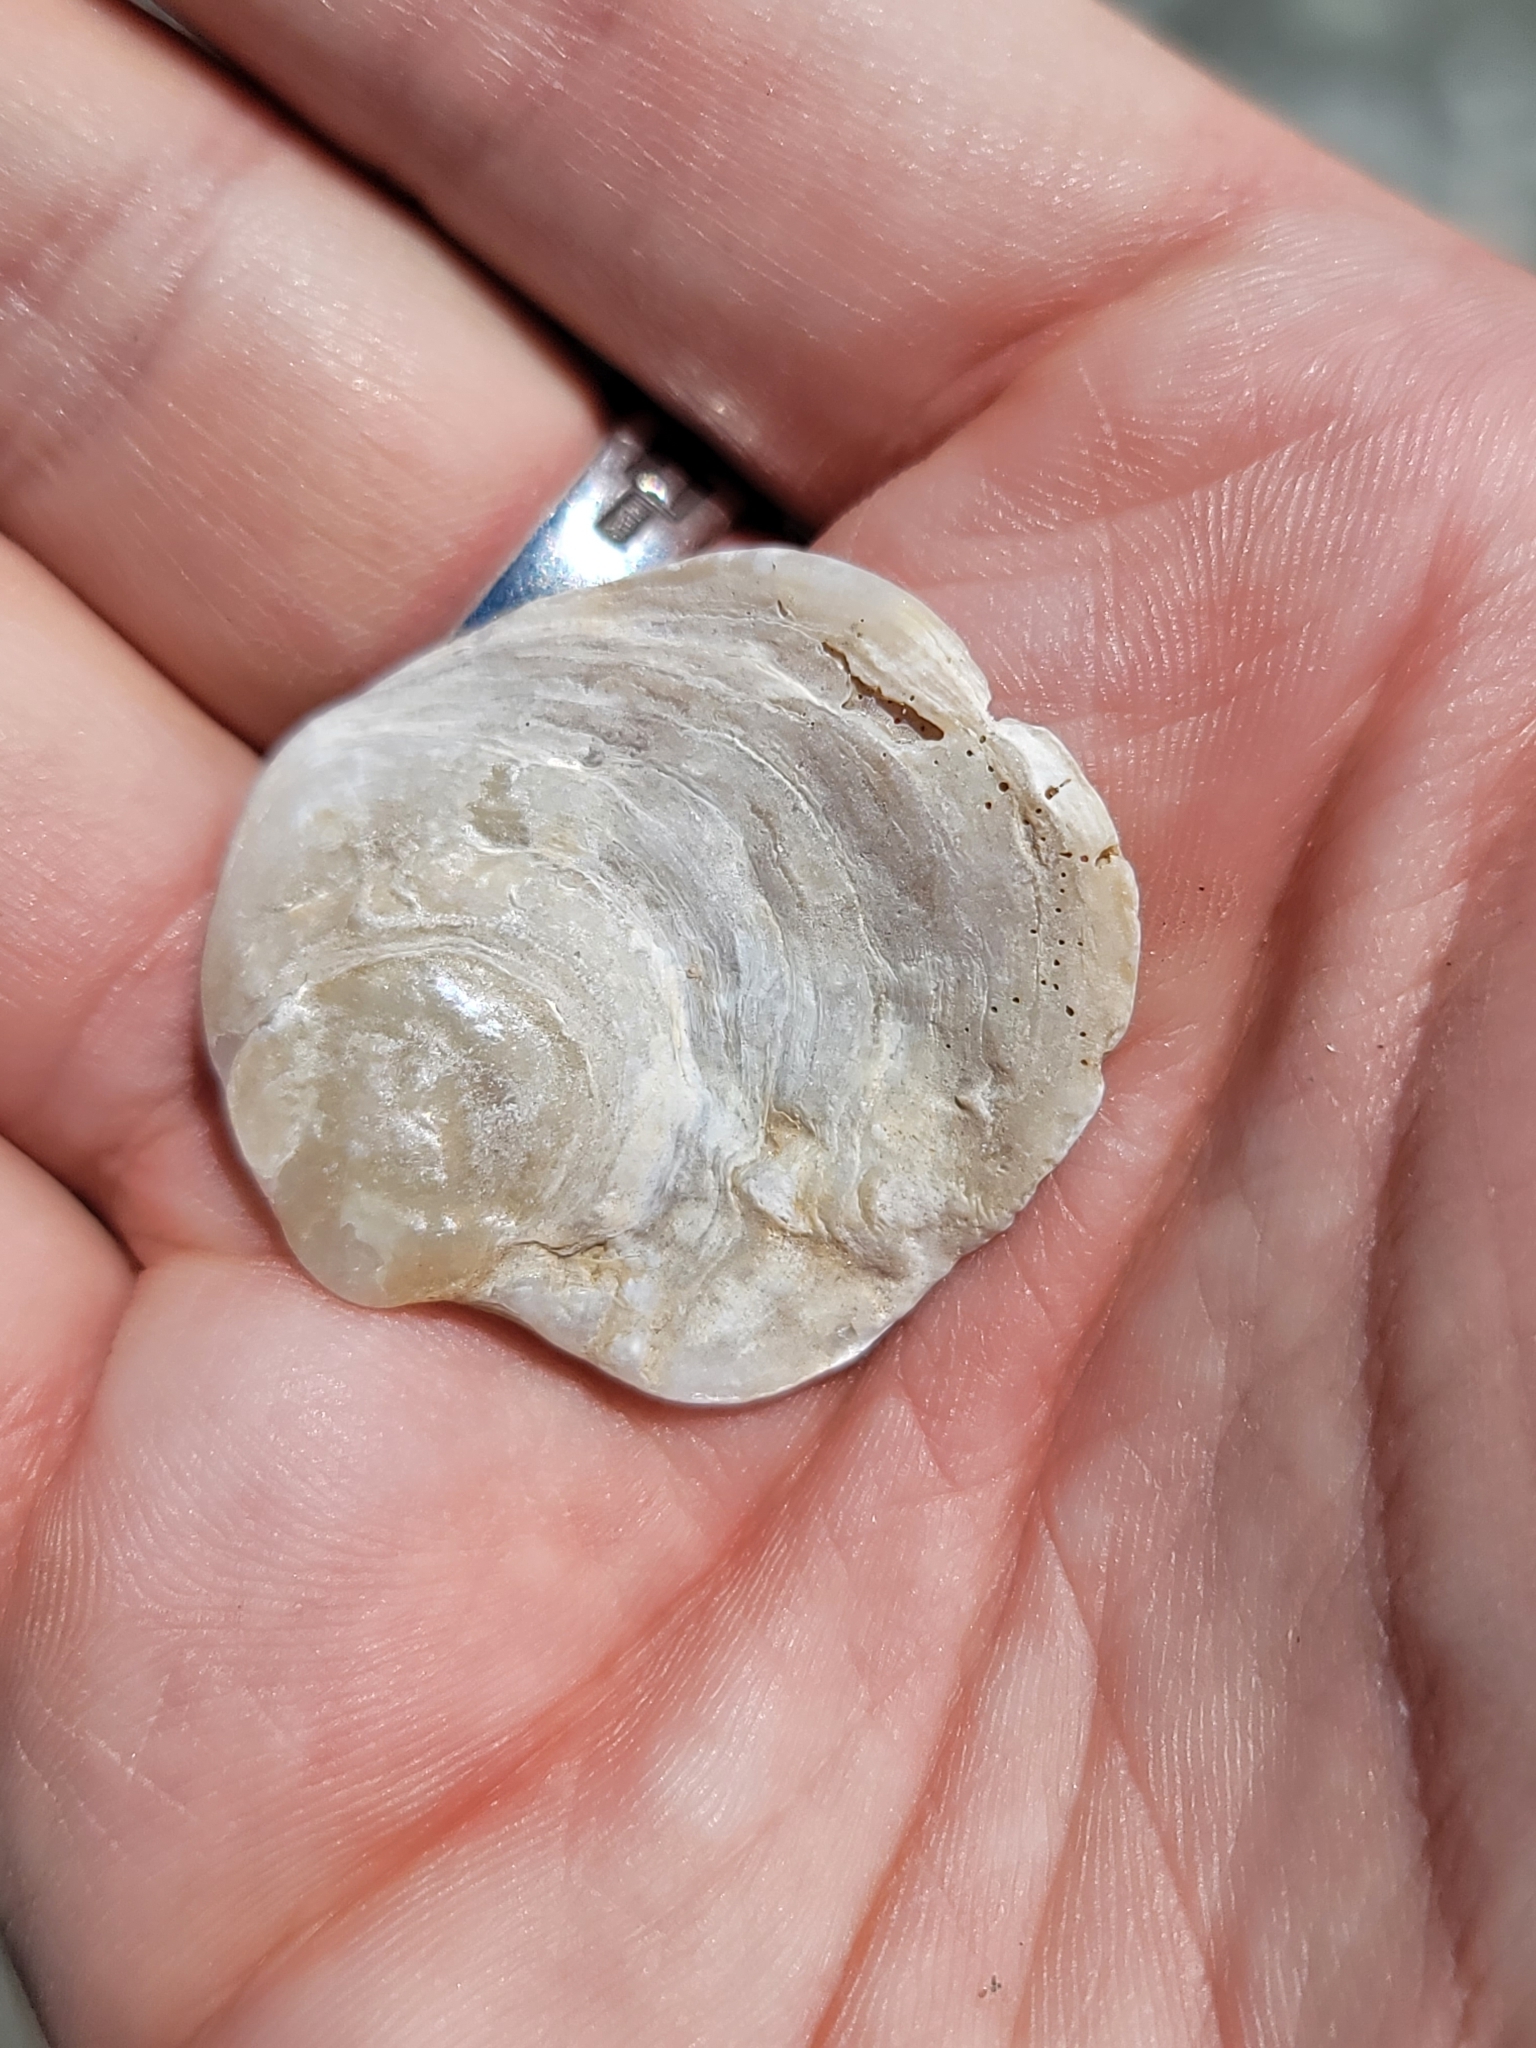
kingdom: Animalia
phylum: Mollusca
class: Bivalvia
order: Ostreida
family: Ostreidae
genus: Ostrea
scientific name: Ostrea lurida
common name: Olympia flat oyster
